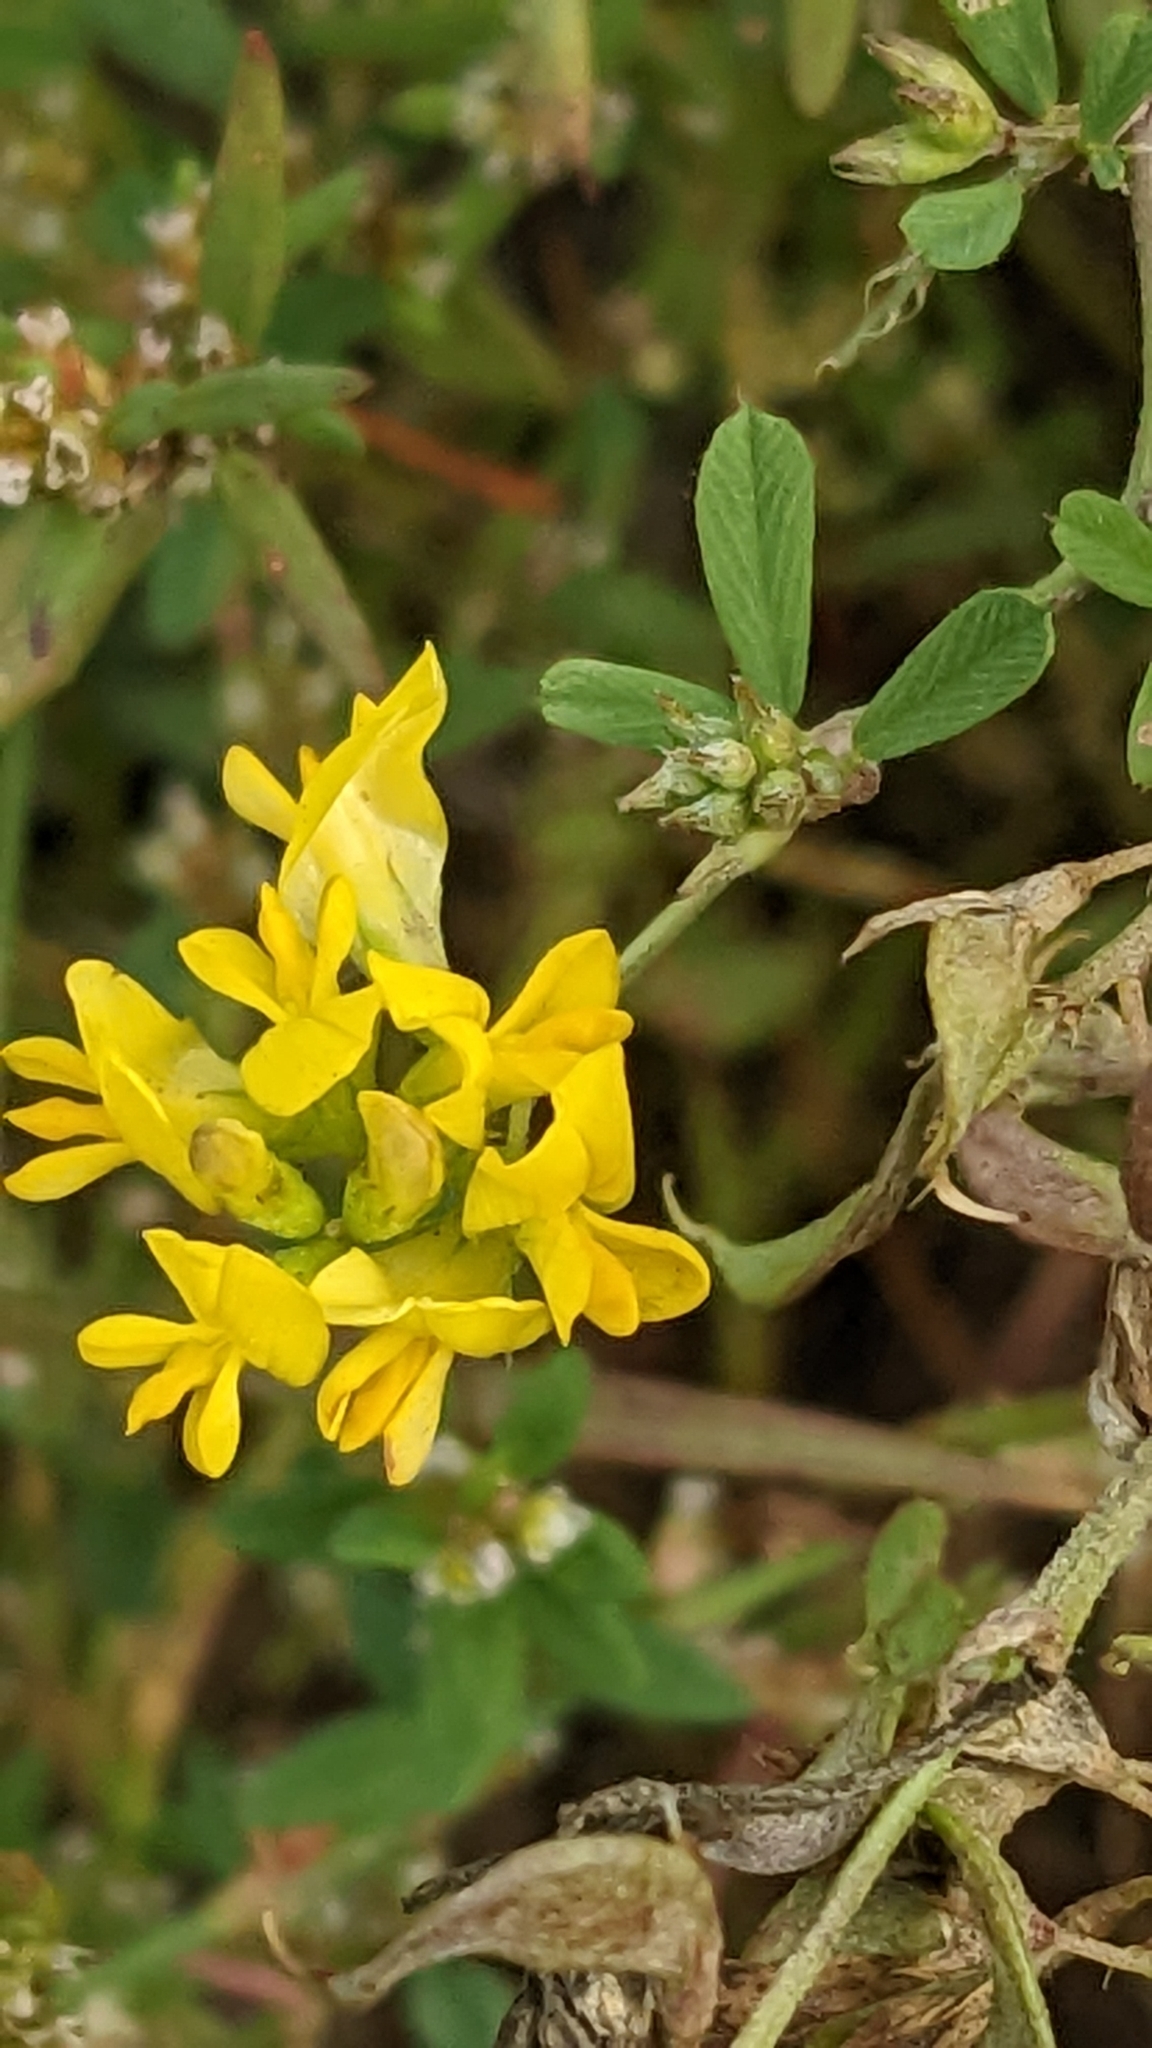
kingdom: Plantae
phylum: Tracheophyta
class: Magnoliopsida
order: Fabales
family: Fabaceae
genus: Medicago
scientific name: Medicago falcata
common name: Sickle medick
